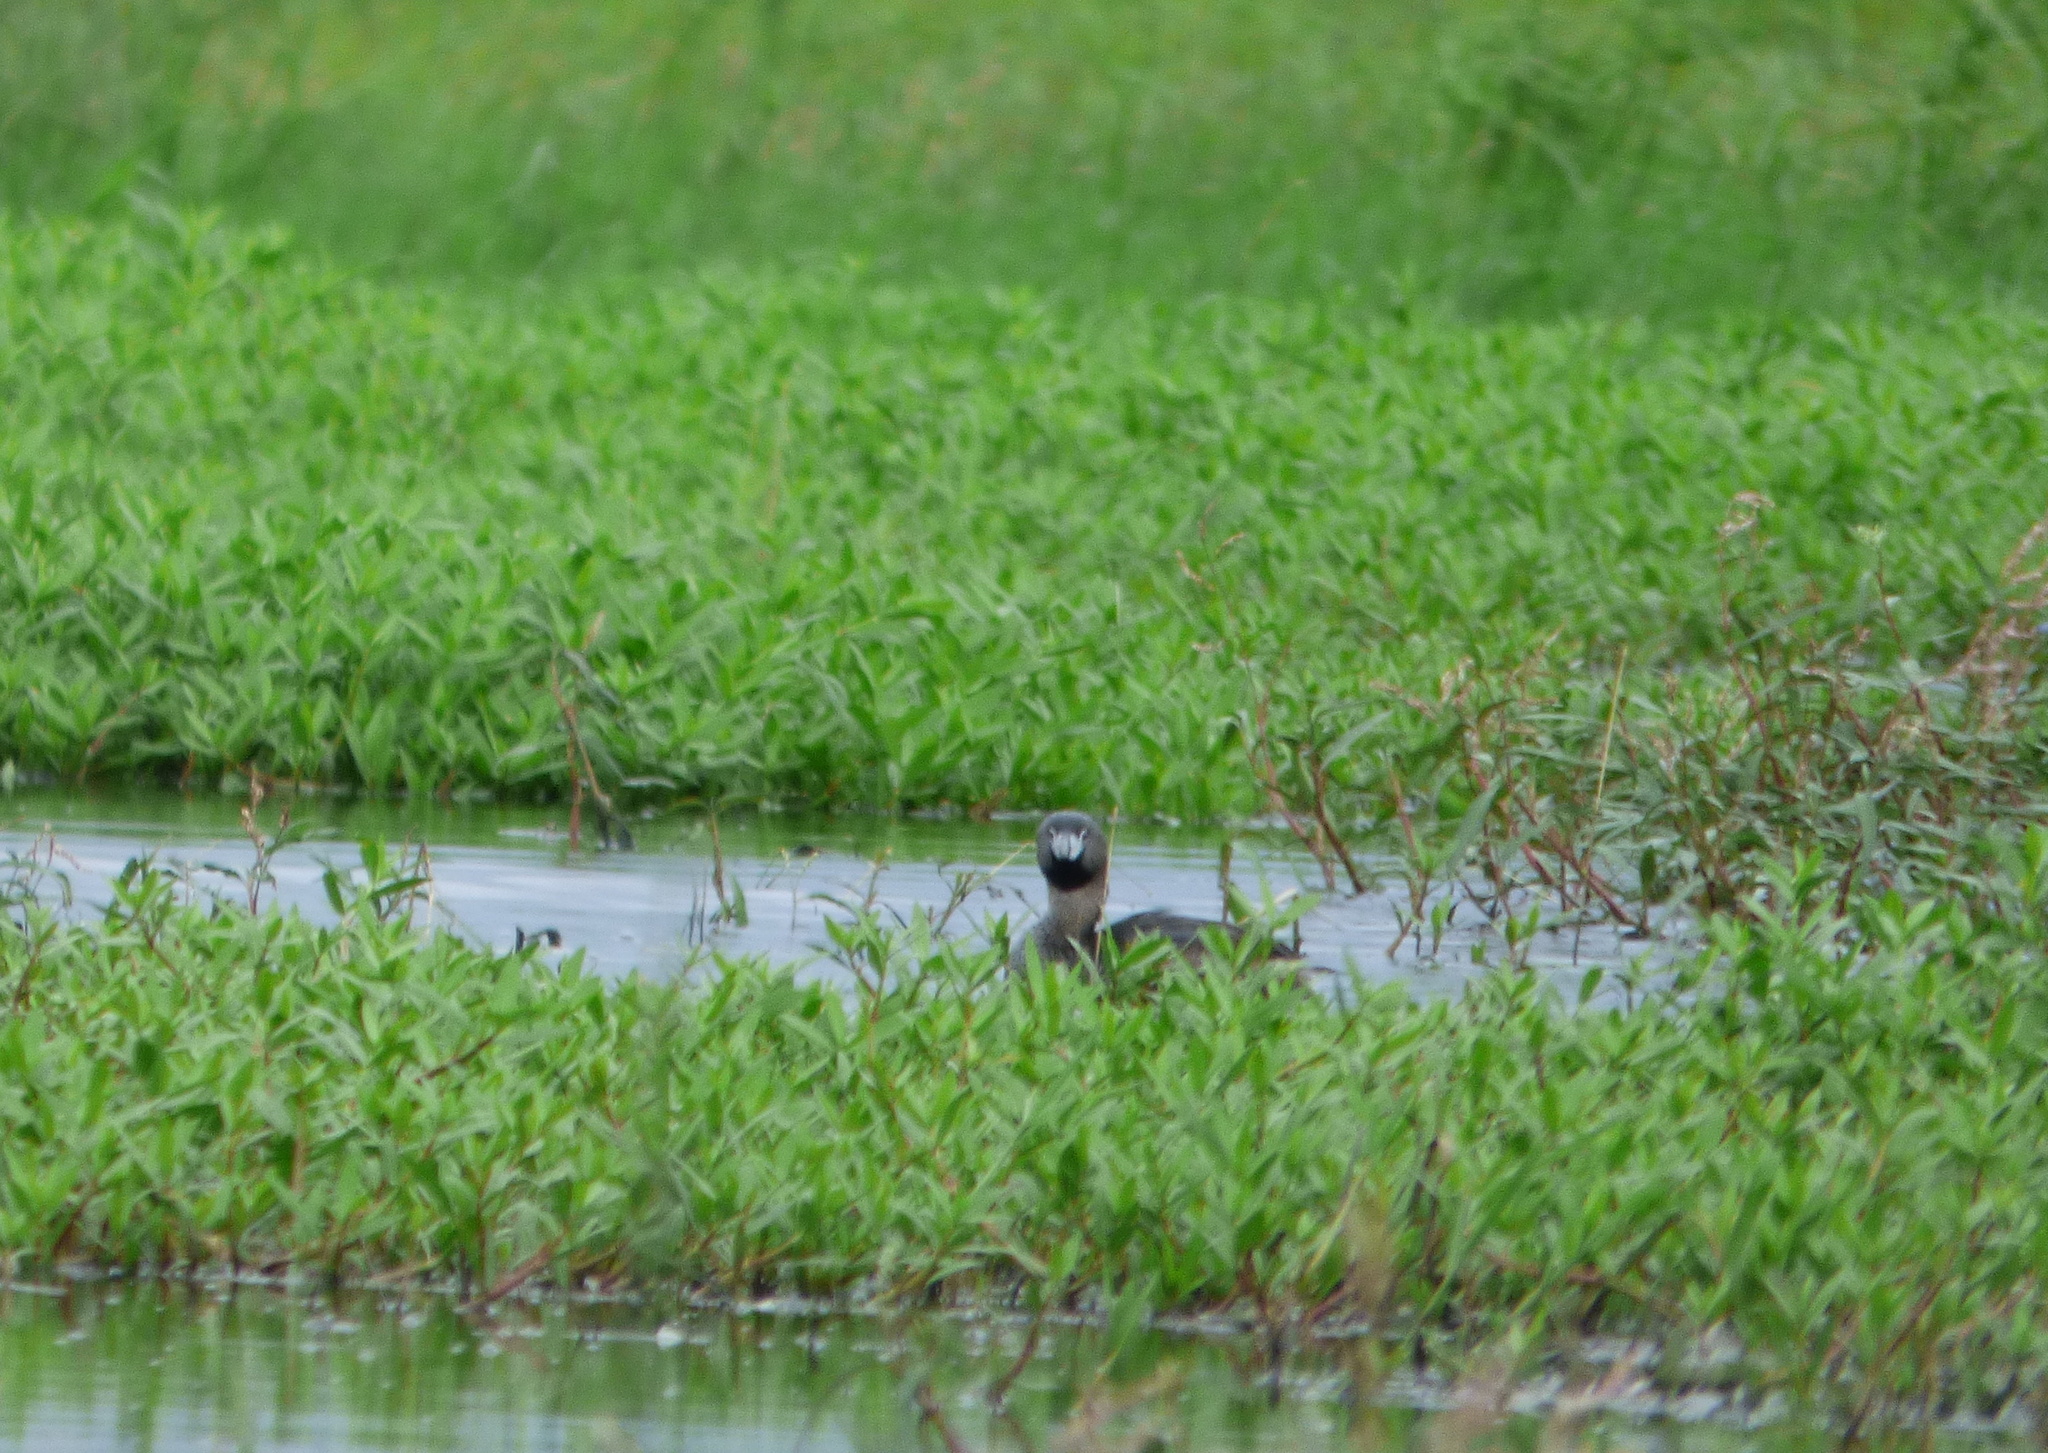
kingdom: Animalia
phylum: Chordata
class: Aves
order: Podicipediformes
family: Podicipedidae
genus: Podilymbus
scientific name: Podilymbus podiceps
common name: Pied-billed grebe
